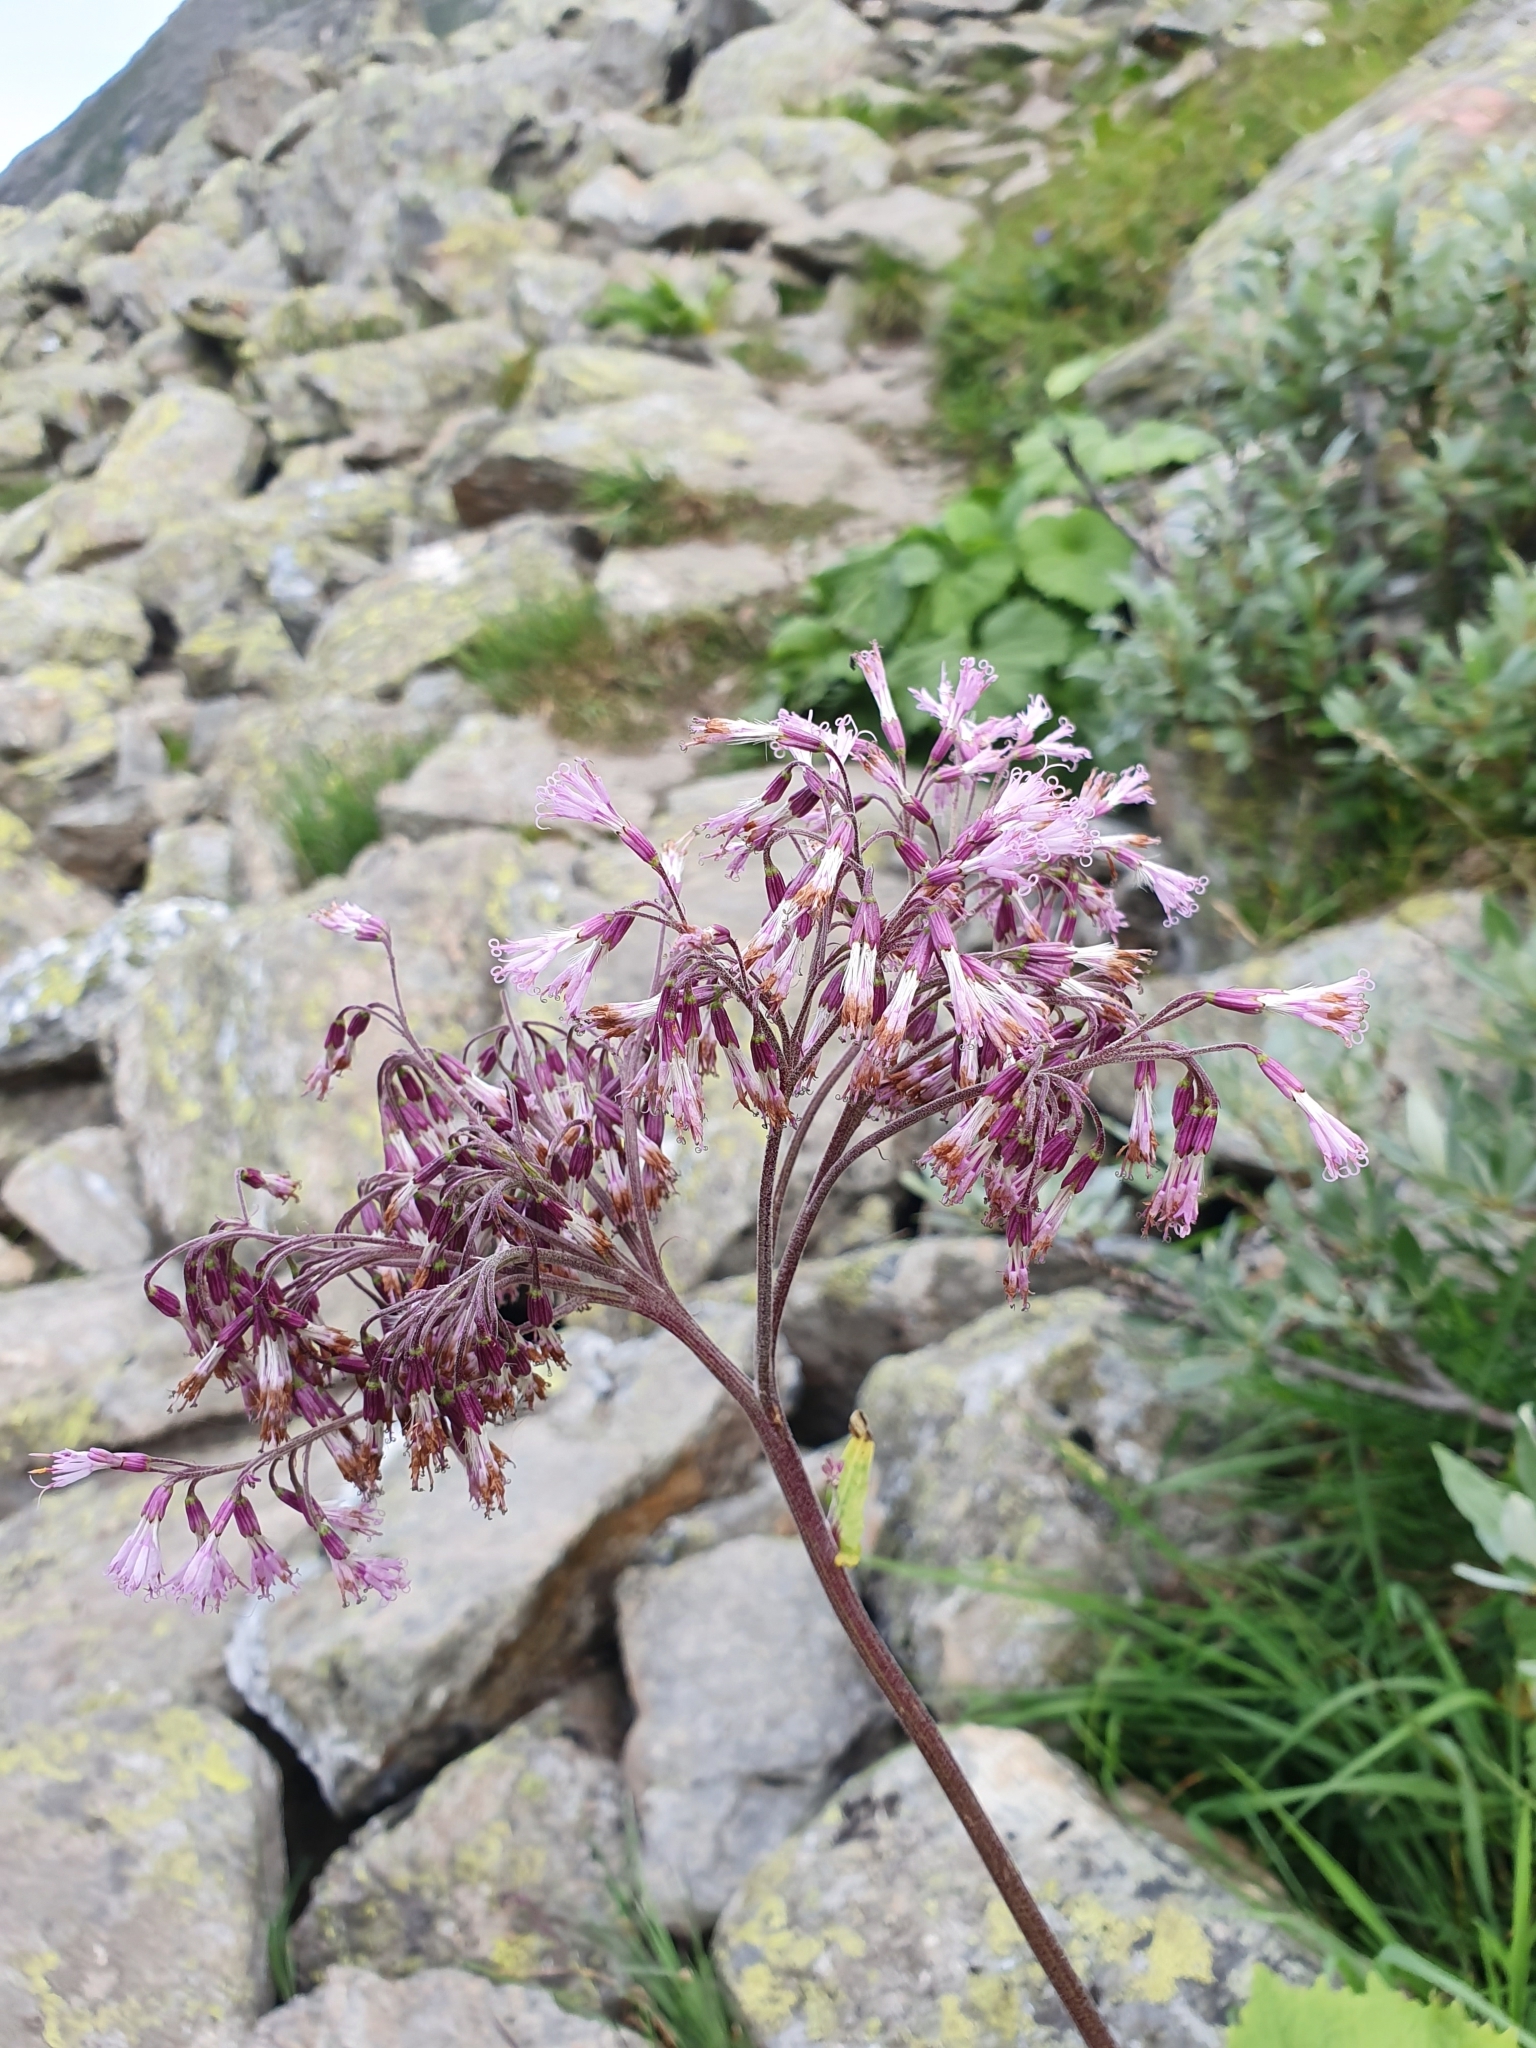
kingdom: Plantae
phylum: Tracheophyta
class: Magnoliopsida
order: Asterales
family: Asteraceae
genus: Adenostyles
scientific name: Adenostyles alliariae
